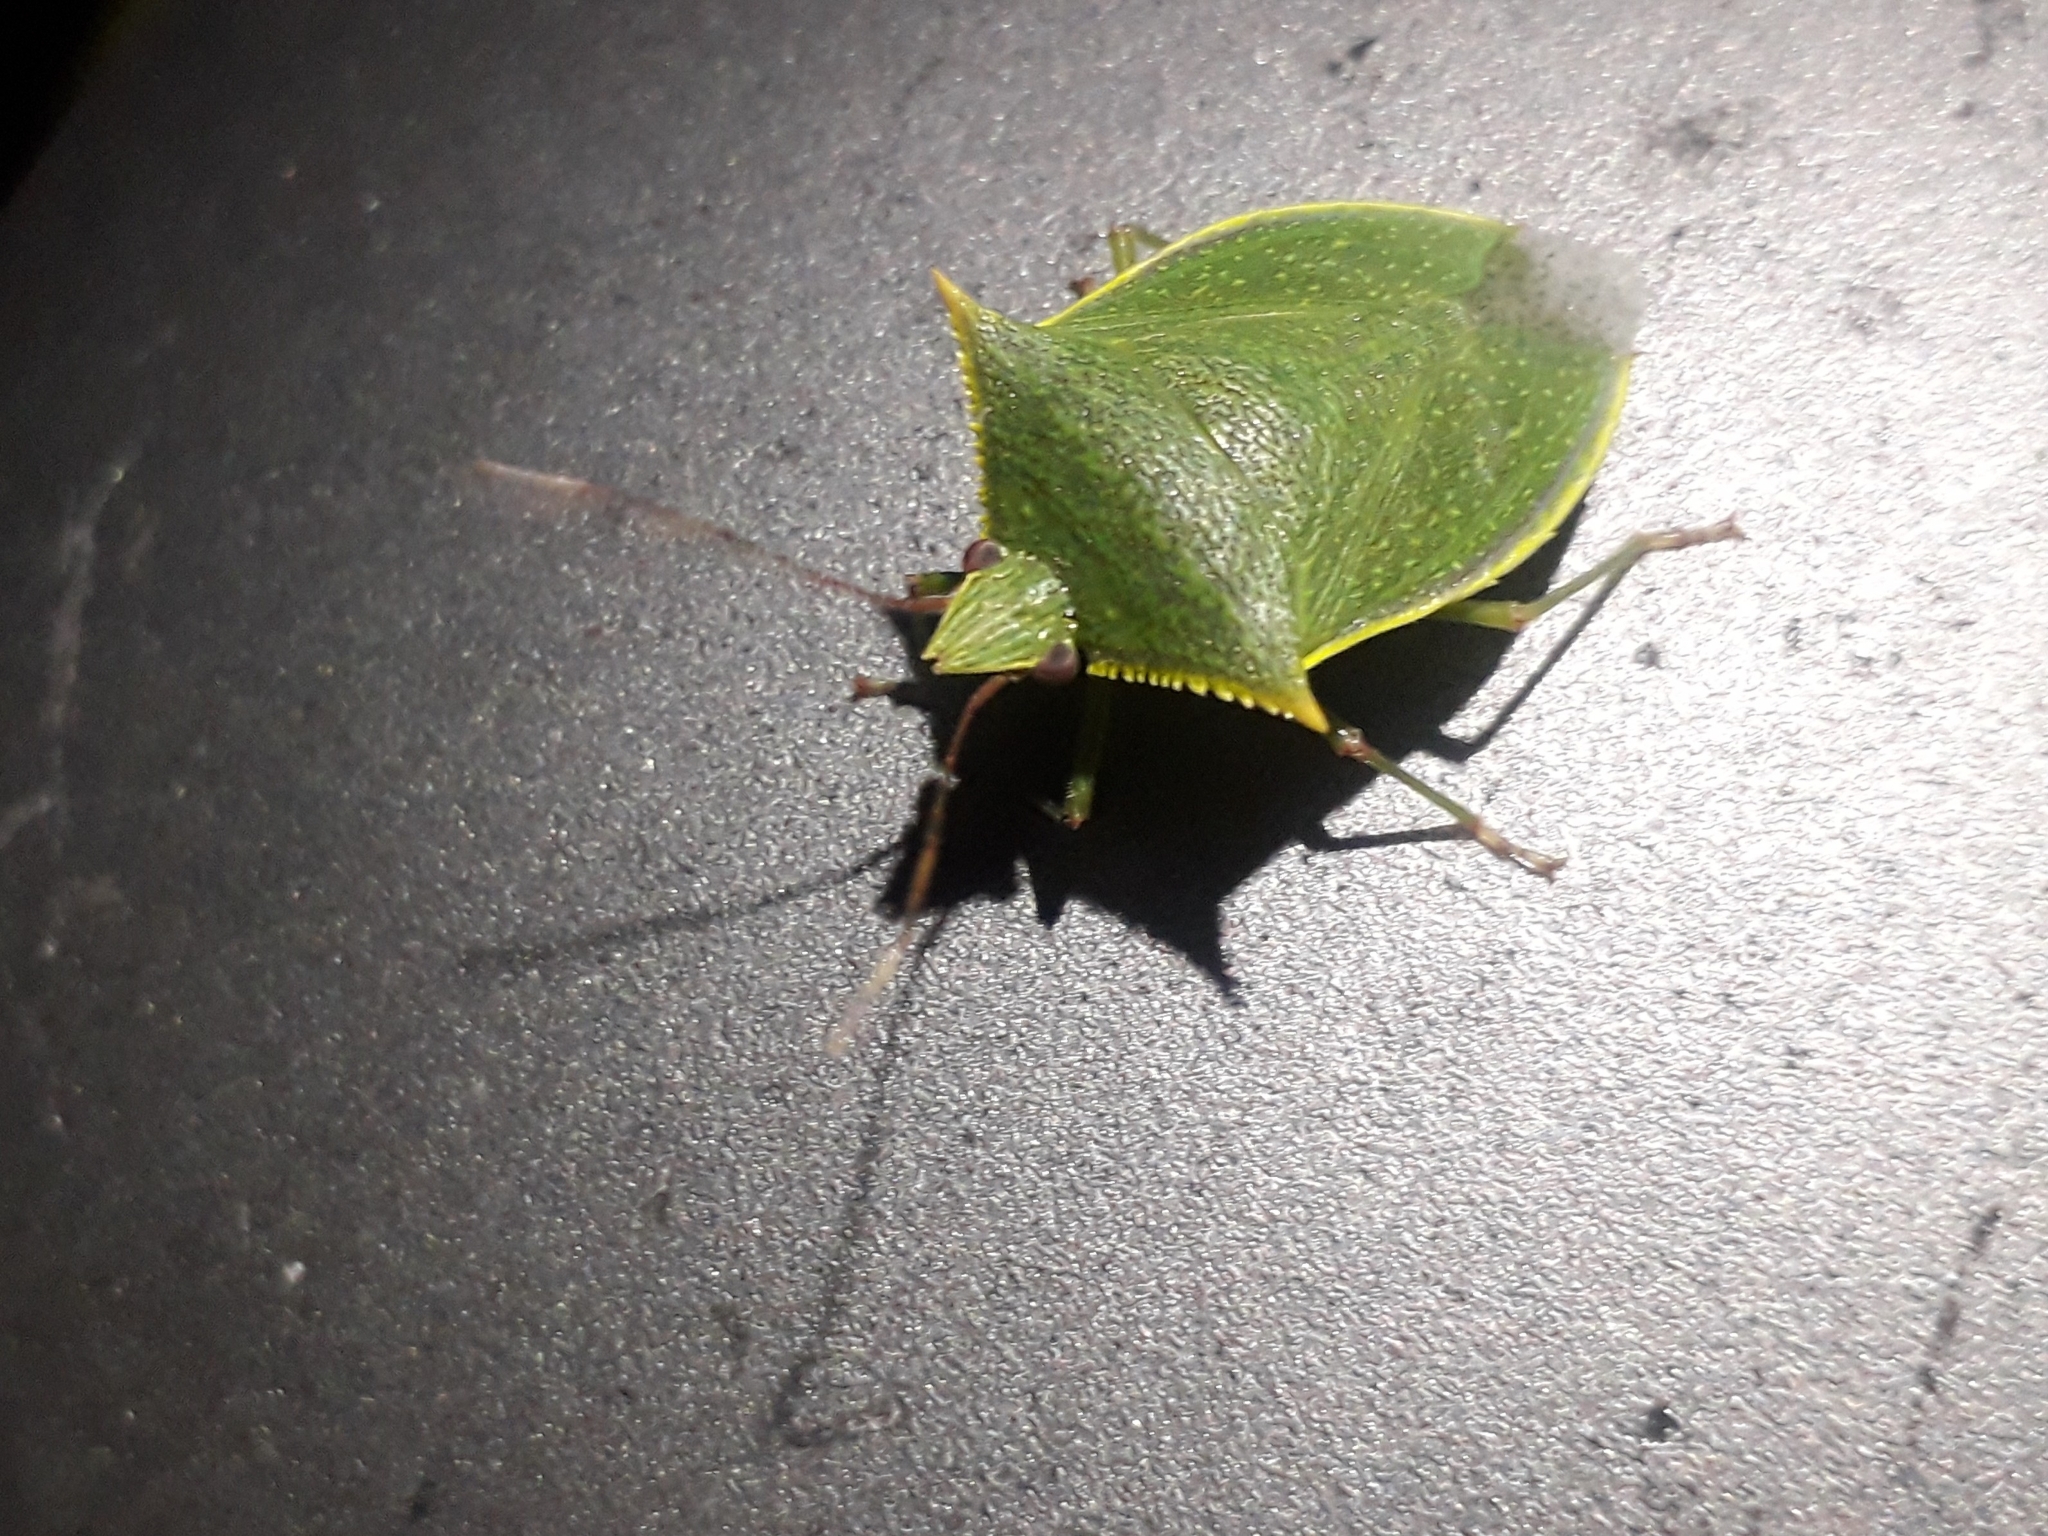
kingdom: Animalia
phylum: Arthropoda
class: Insecta
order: Hemiptera
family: Pentatomidae
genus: Loxa
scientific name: Loxa viridis
